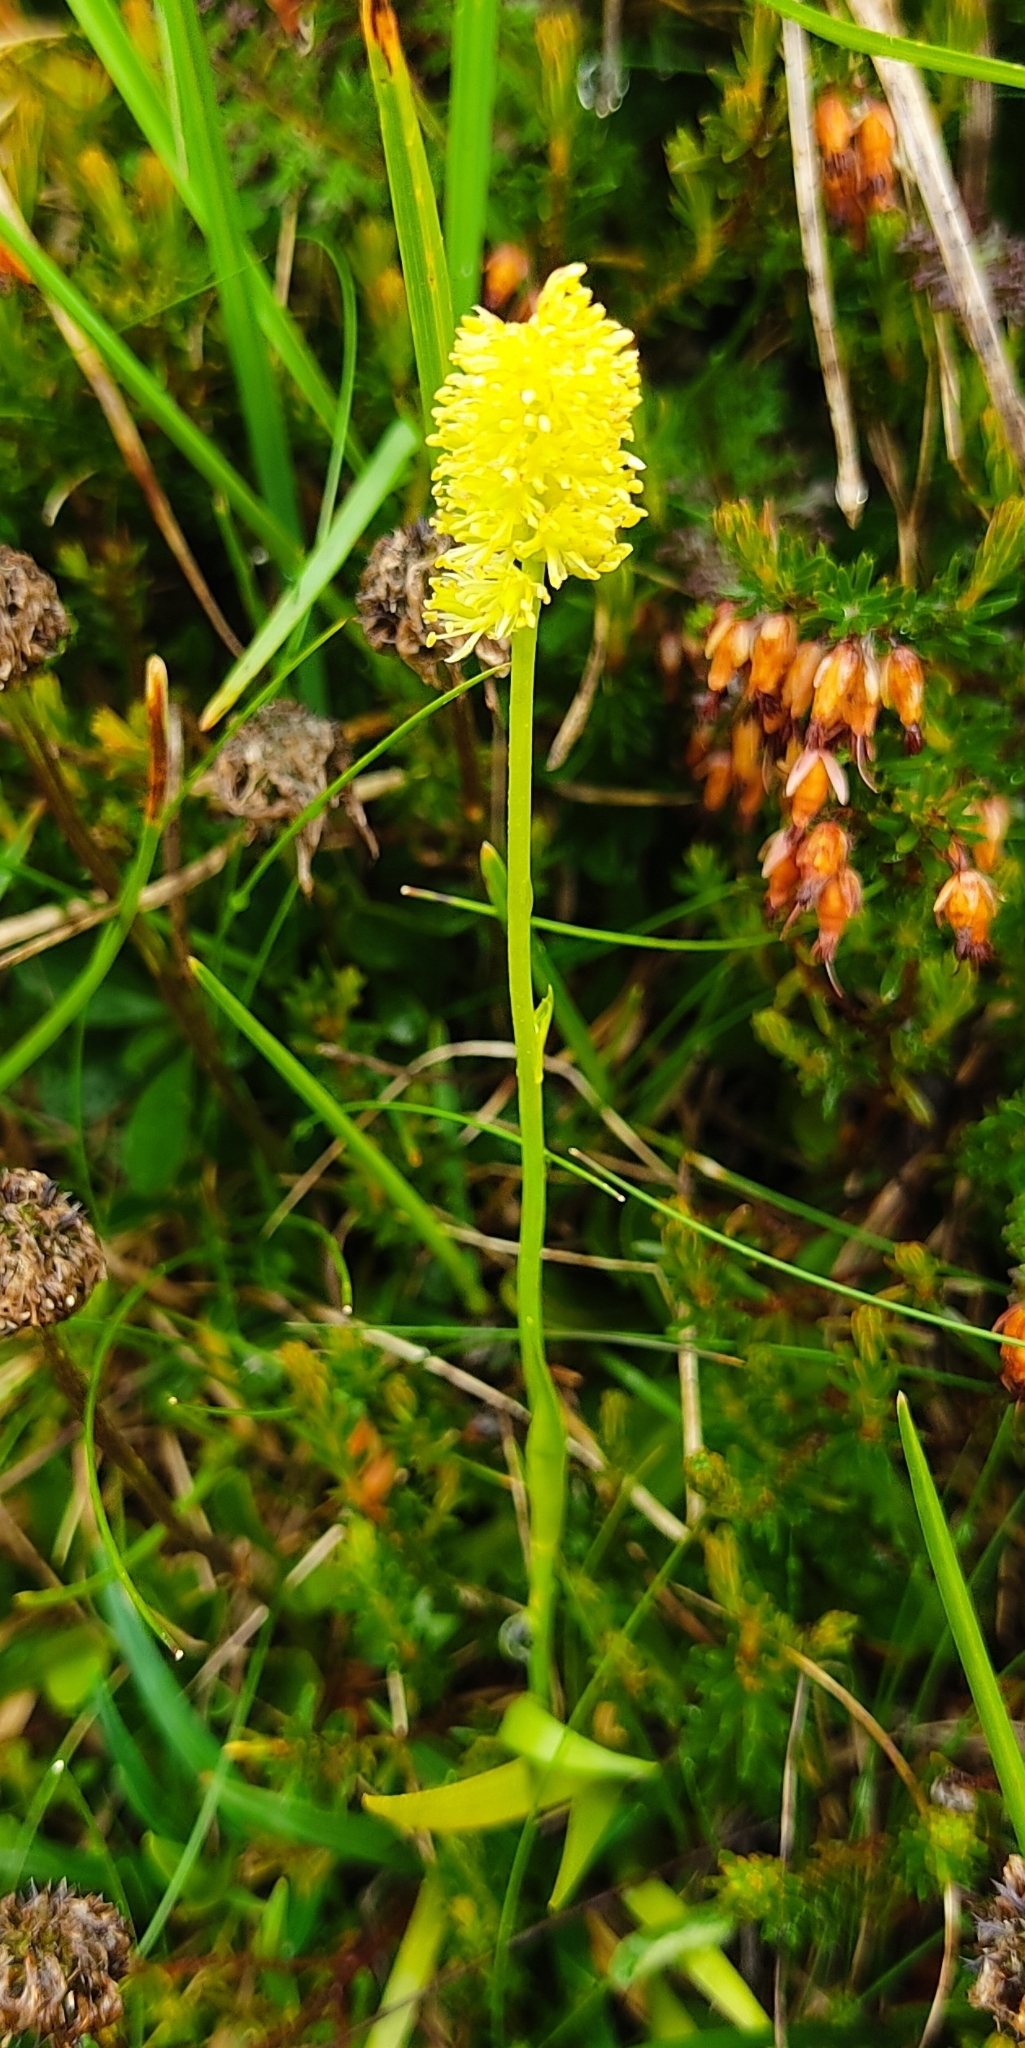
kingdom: Plantae
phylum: Tracheophyta
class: Liliopsida
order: Alismatales
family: Tofieldiaceae
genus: Tofieldia
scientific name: Tofieldia calyculata
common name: German-asphodel
